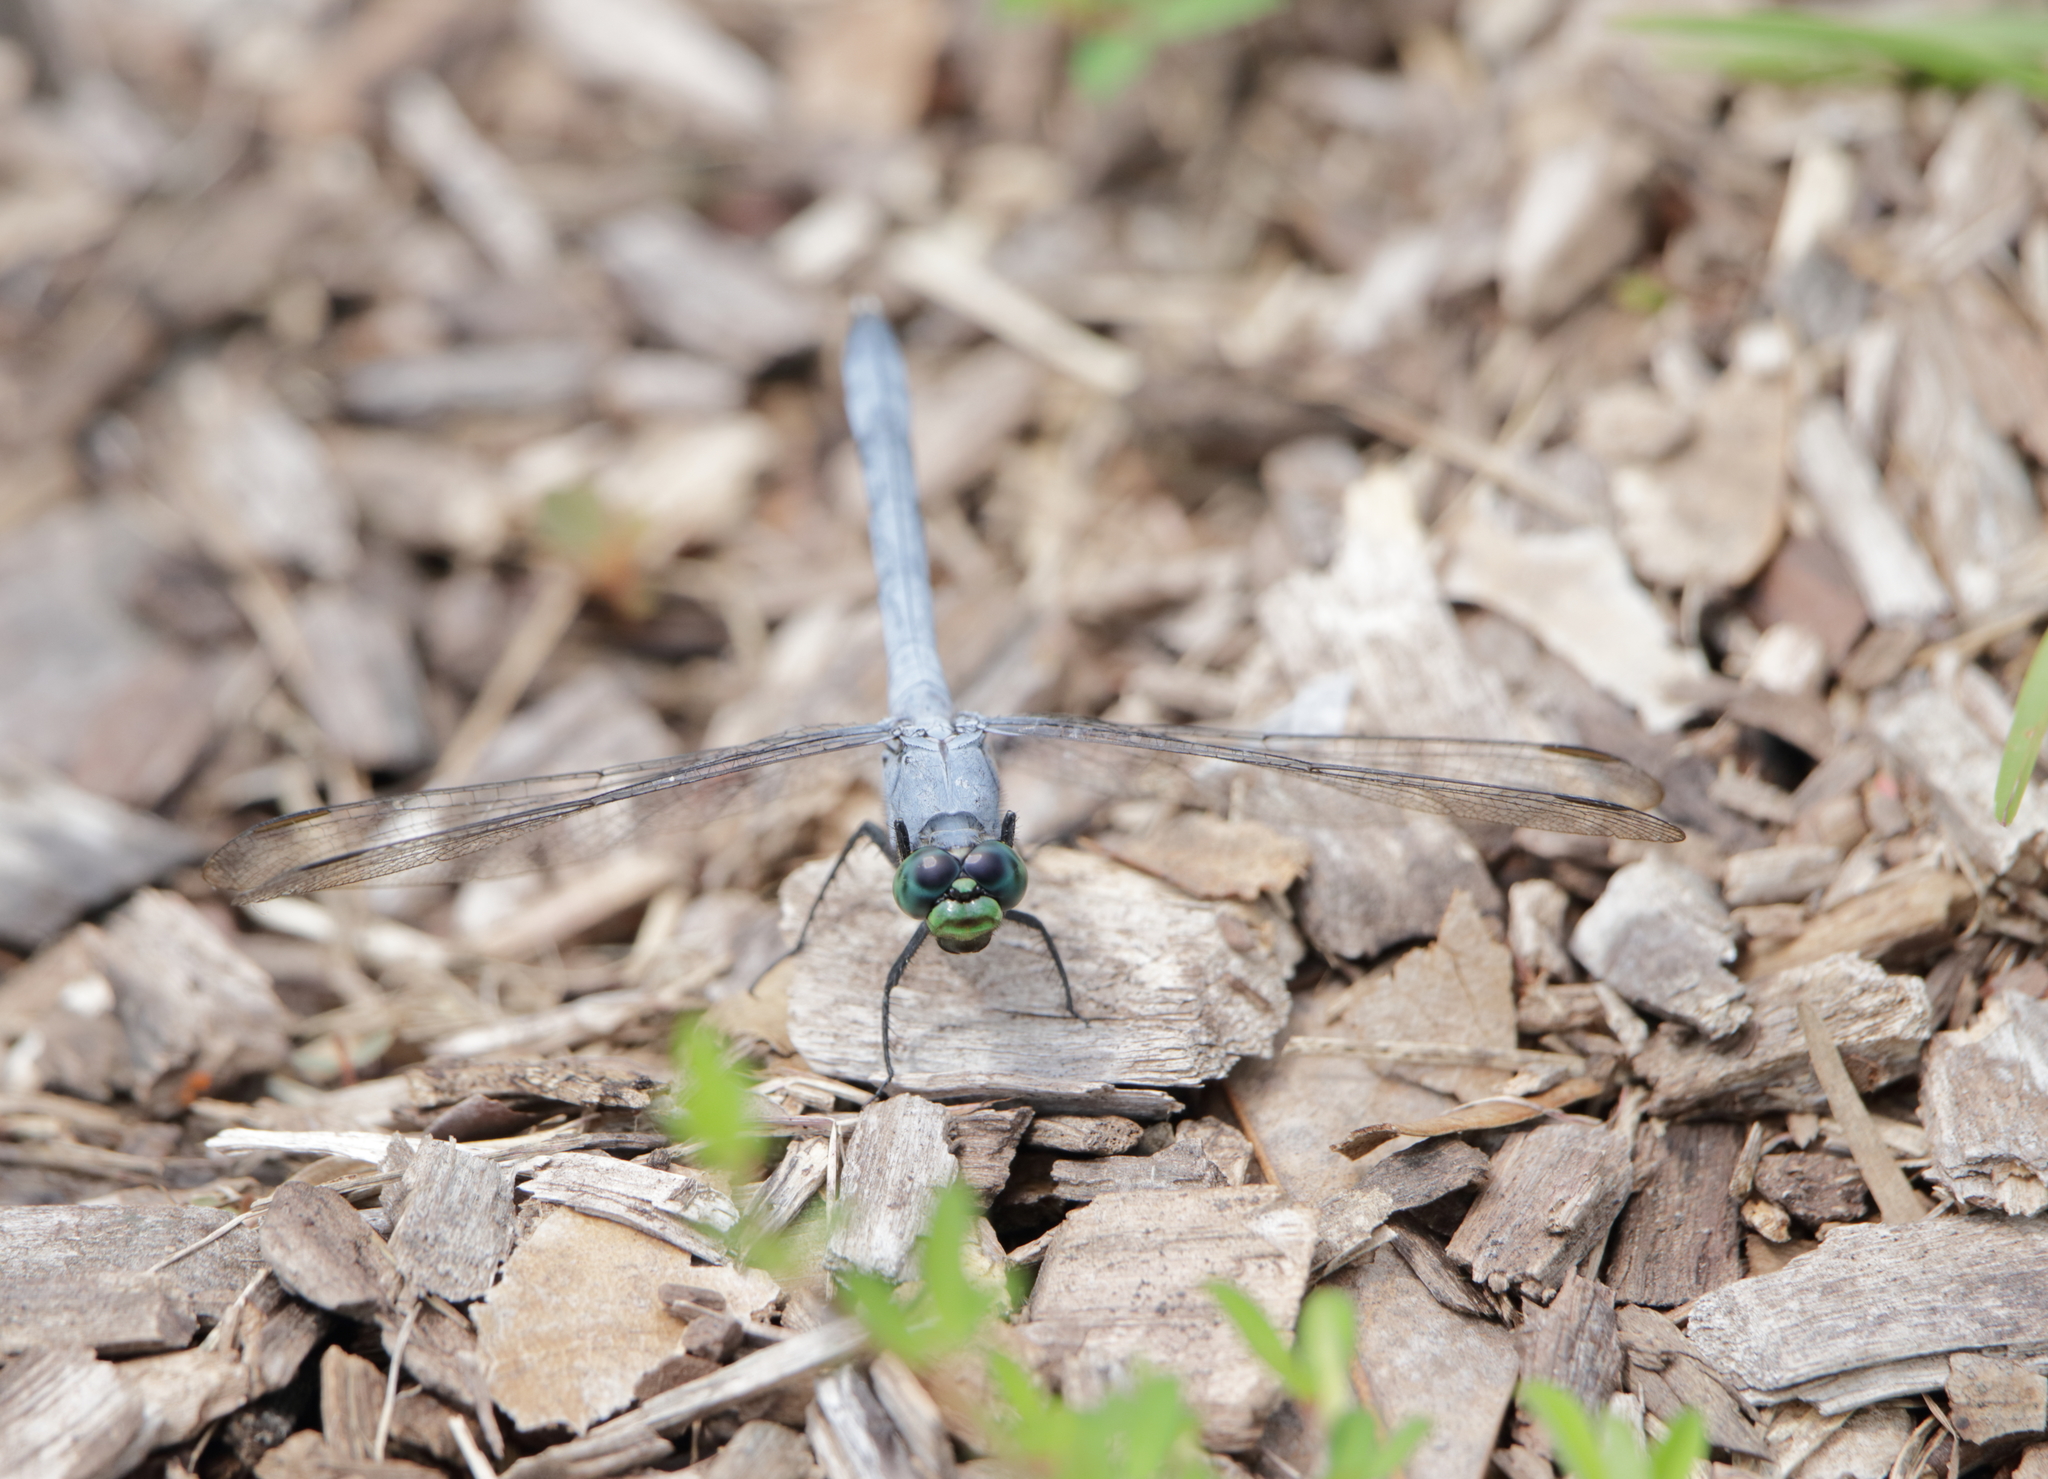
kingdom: Animalia
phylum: Arthropoda
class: Insecta
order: Odonata
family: Libellulidae
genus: Erythemis
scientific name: Erythemis simplicicollis
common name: Eastern pondhawk
